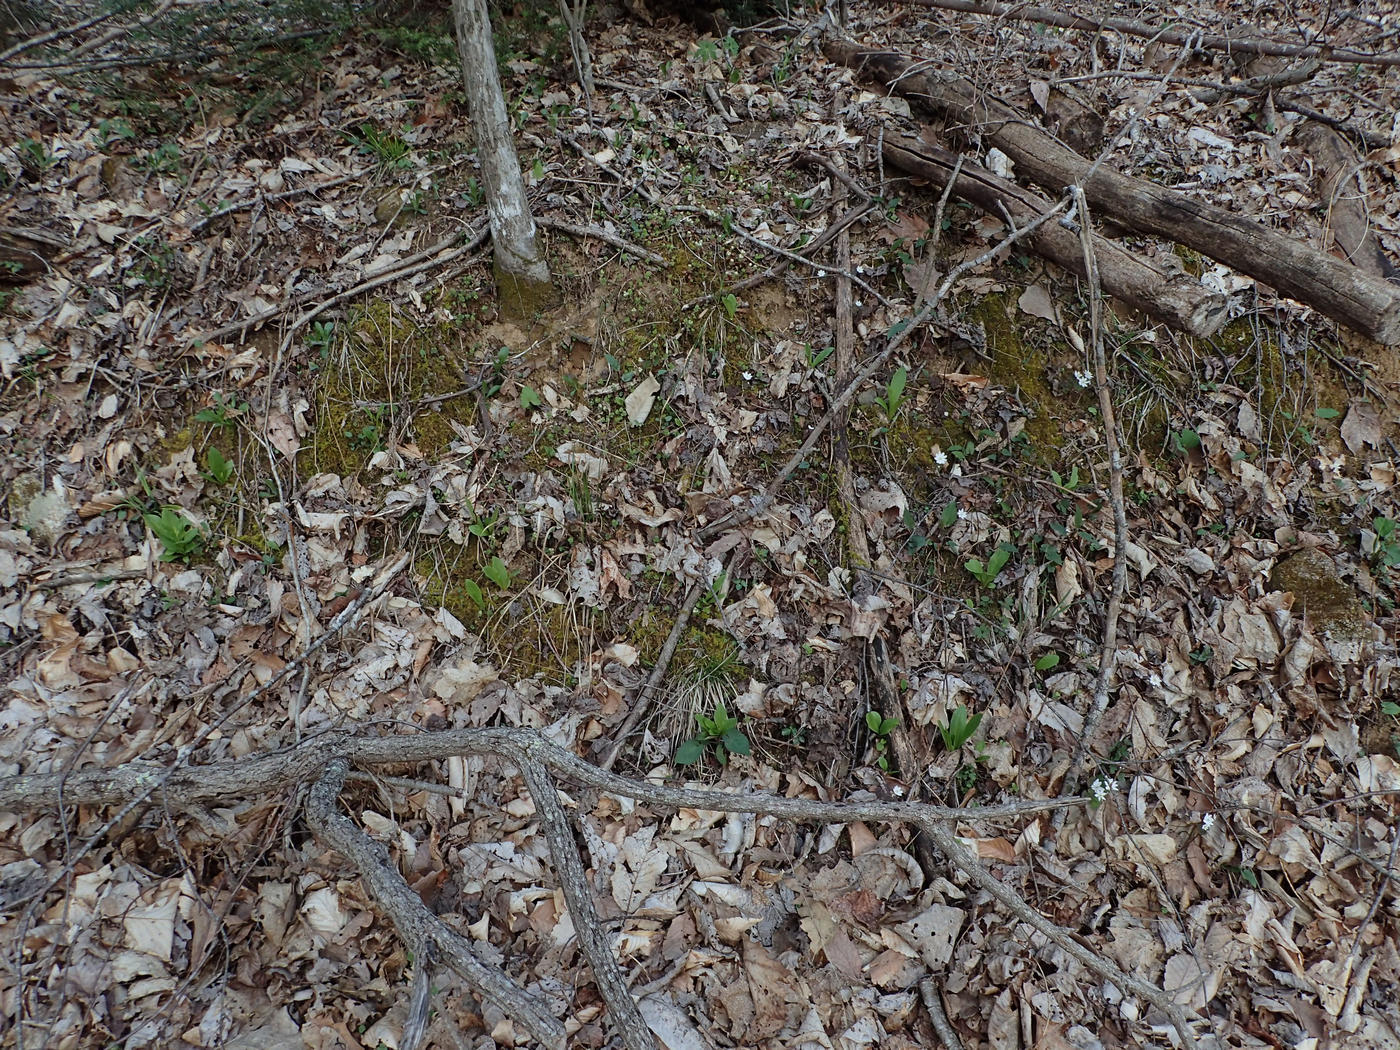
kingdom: Plantae
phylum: Tracheophyta
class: Magnoliopsida
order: Ericales
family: Primulaceae
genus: Dodecatheon
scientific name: Dodecatheon meadia
